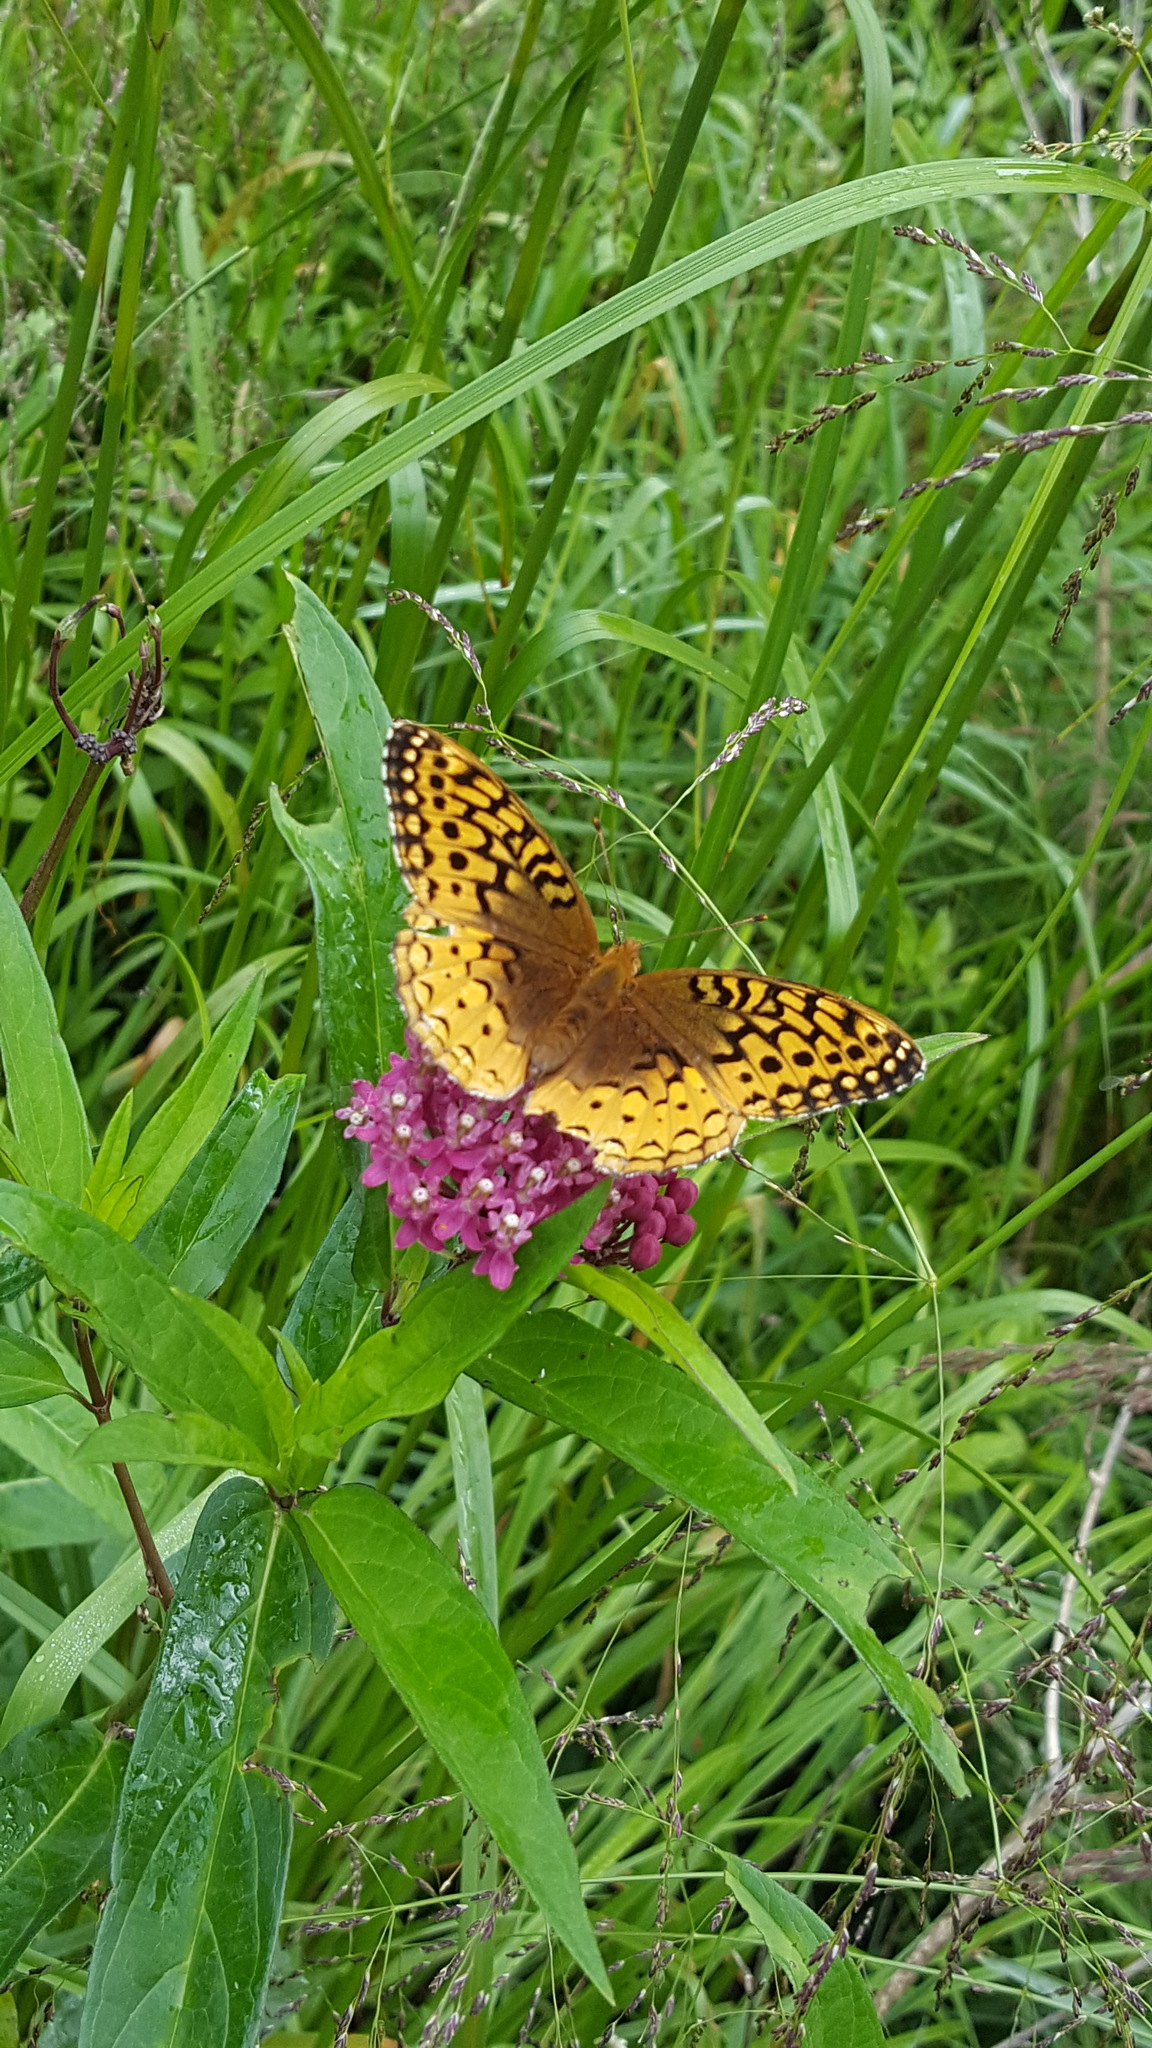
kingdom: Animalia
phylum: Arthropoda
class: Insecta
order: Lepidoptera
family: Nymphalidae
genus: Speyeria
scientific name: Speyeria cybele
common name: Great spangled fritillary
